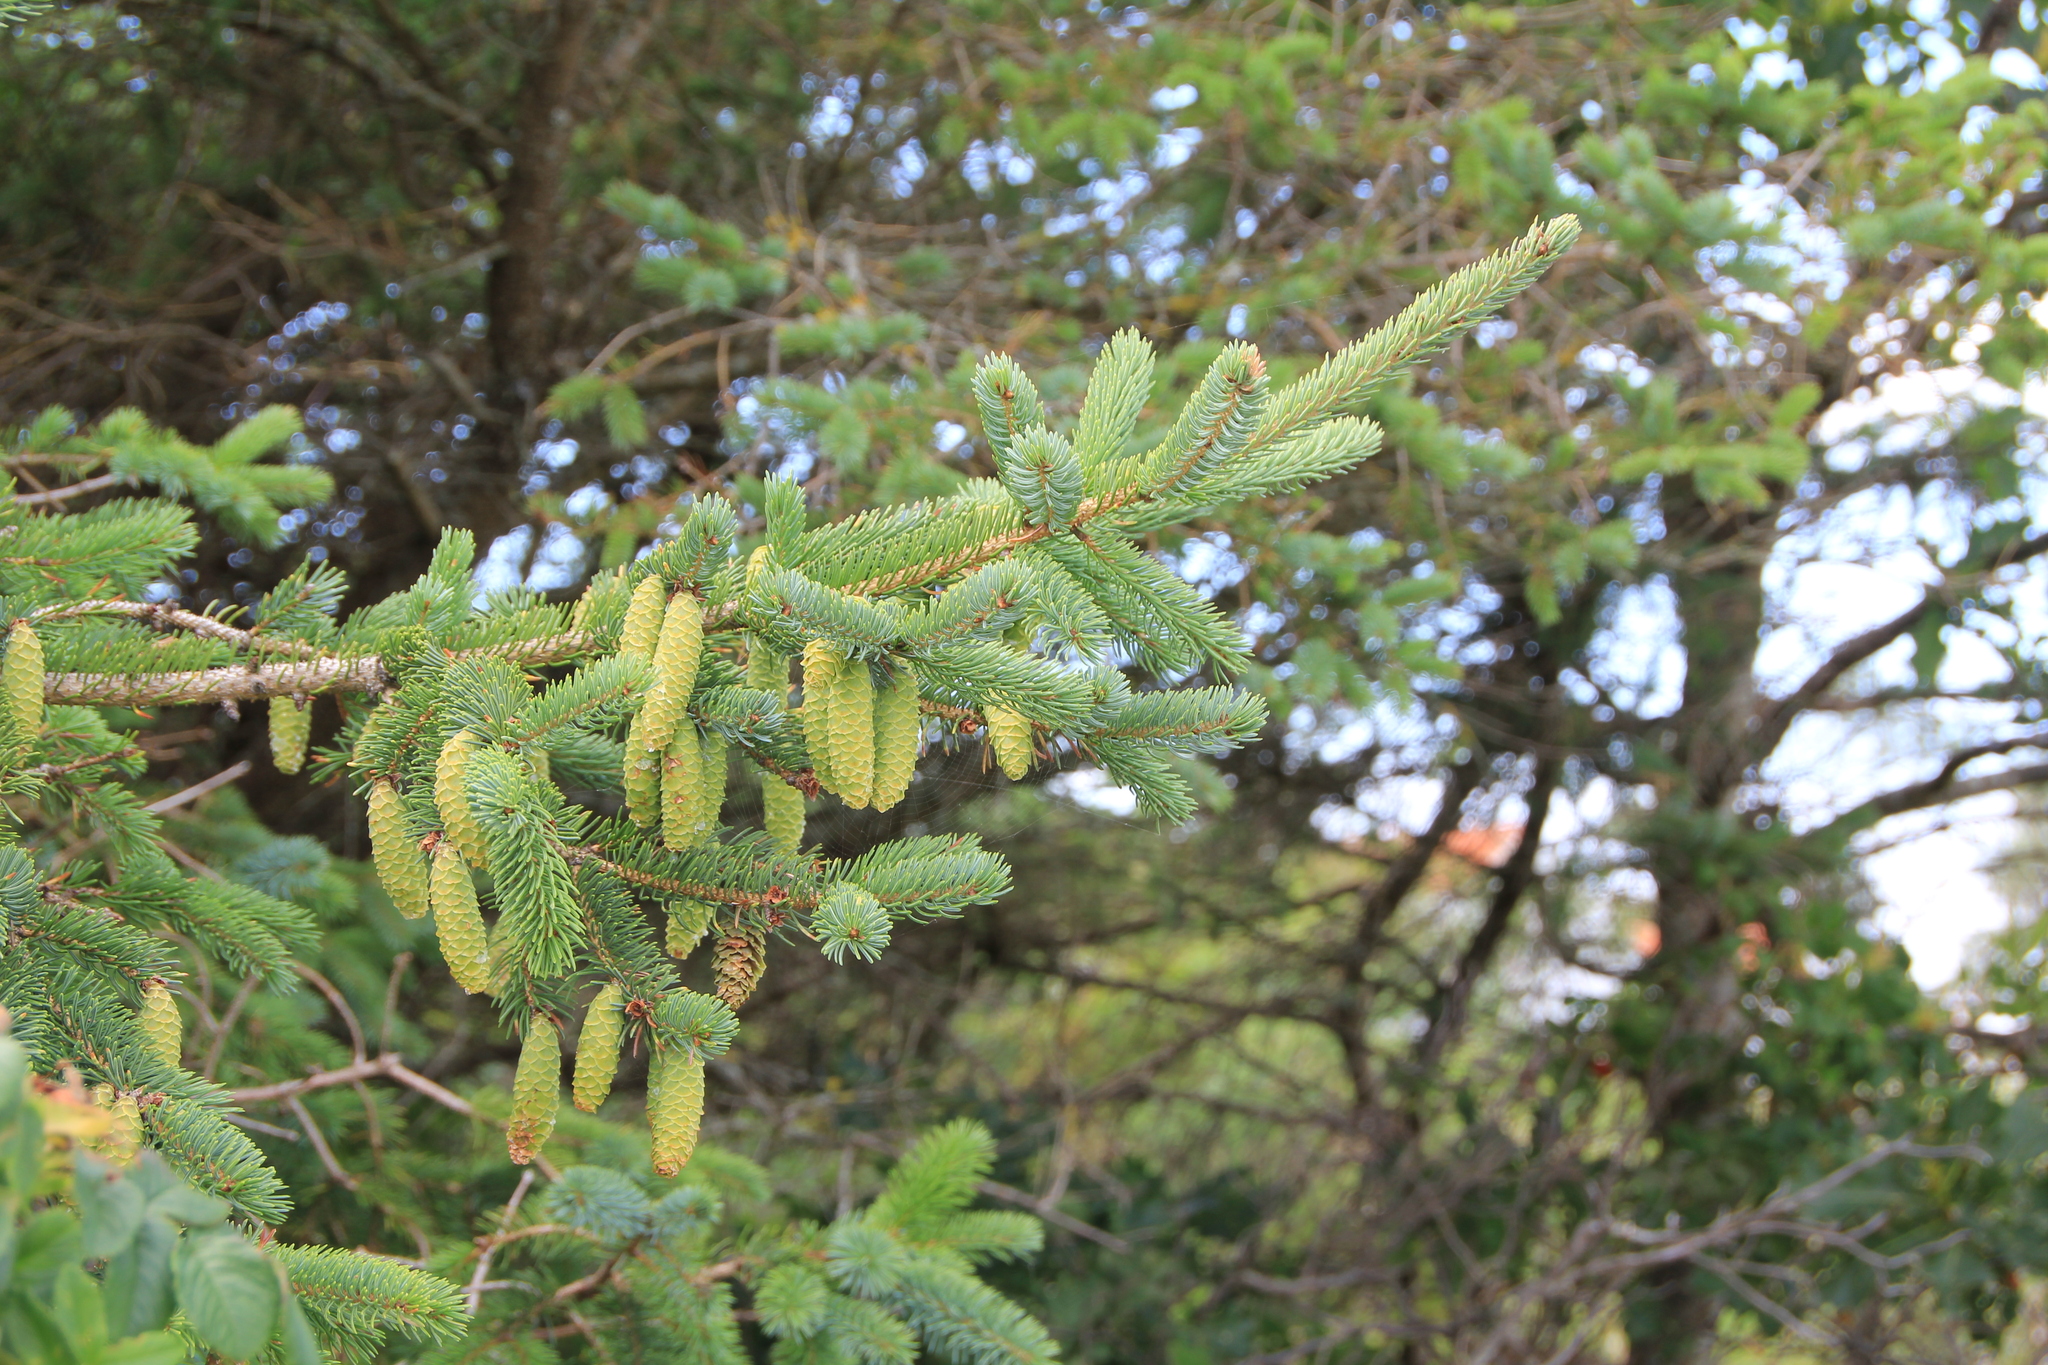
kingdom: Plantae
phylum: Tracheophyta
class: Pinopsida
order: Pinales
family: Pinaceae
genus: Picea
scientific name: Picea sitchensis
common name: Sitka spruce
